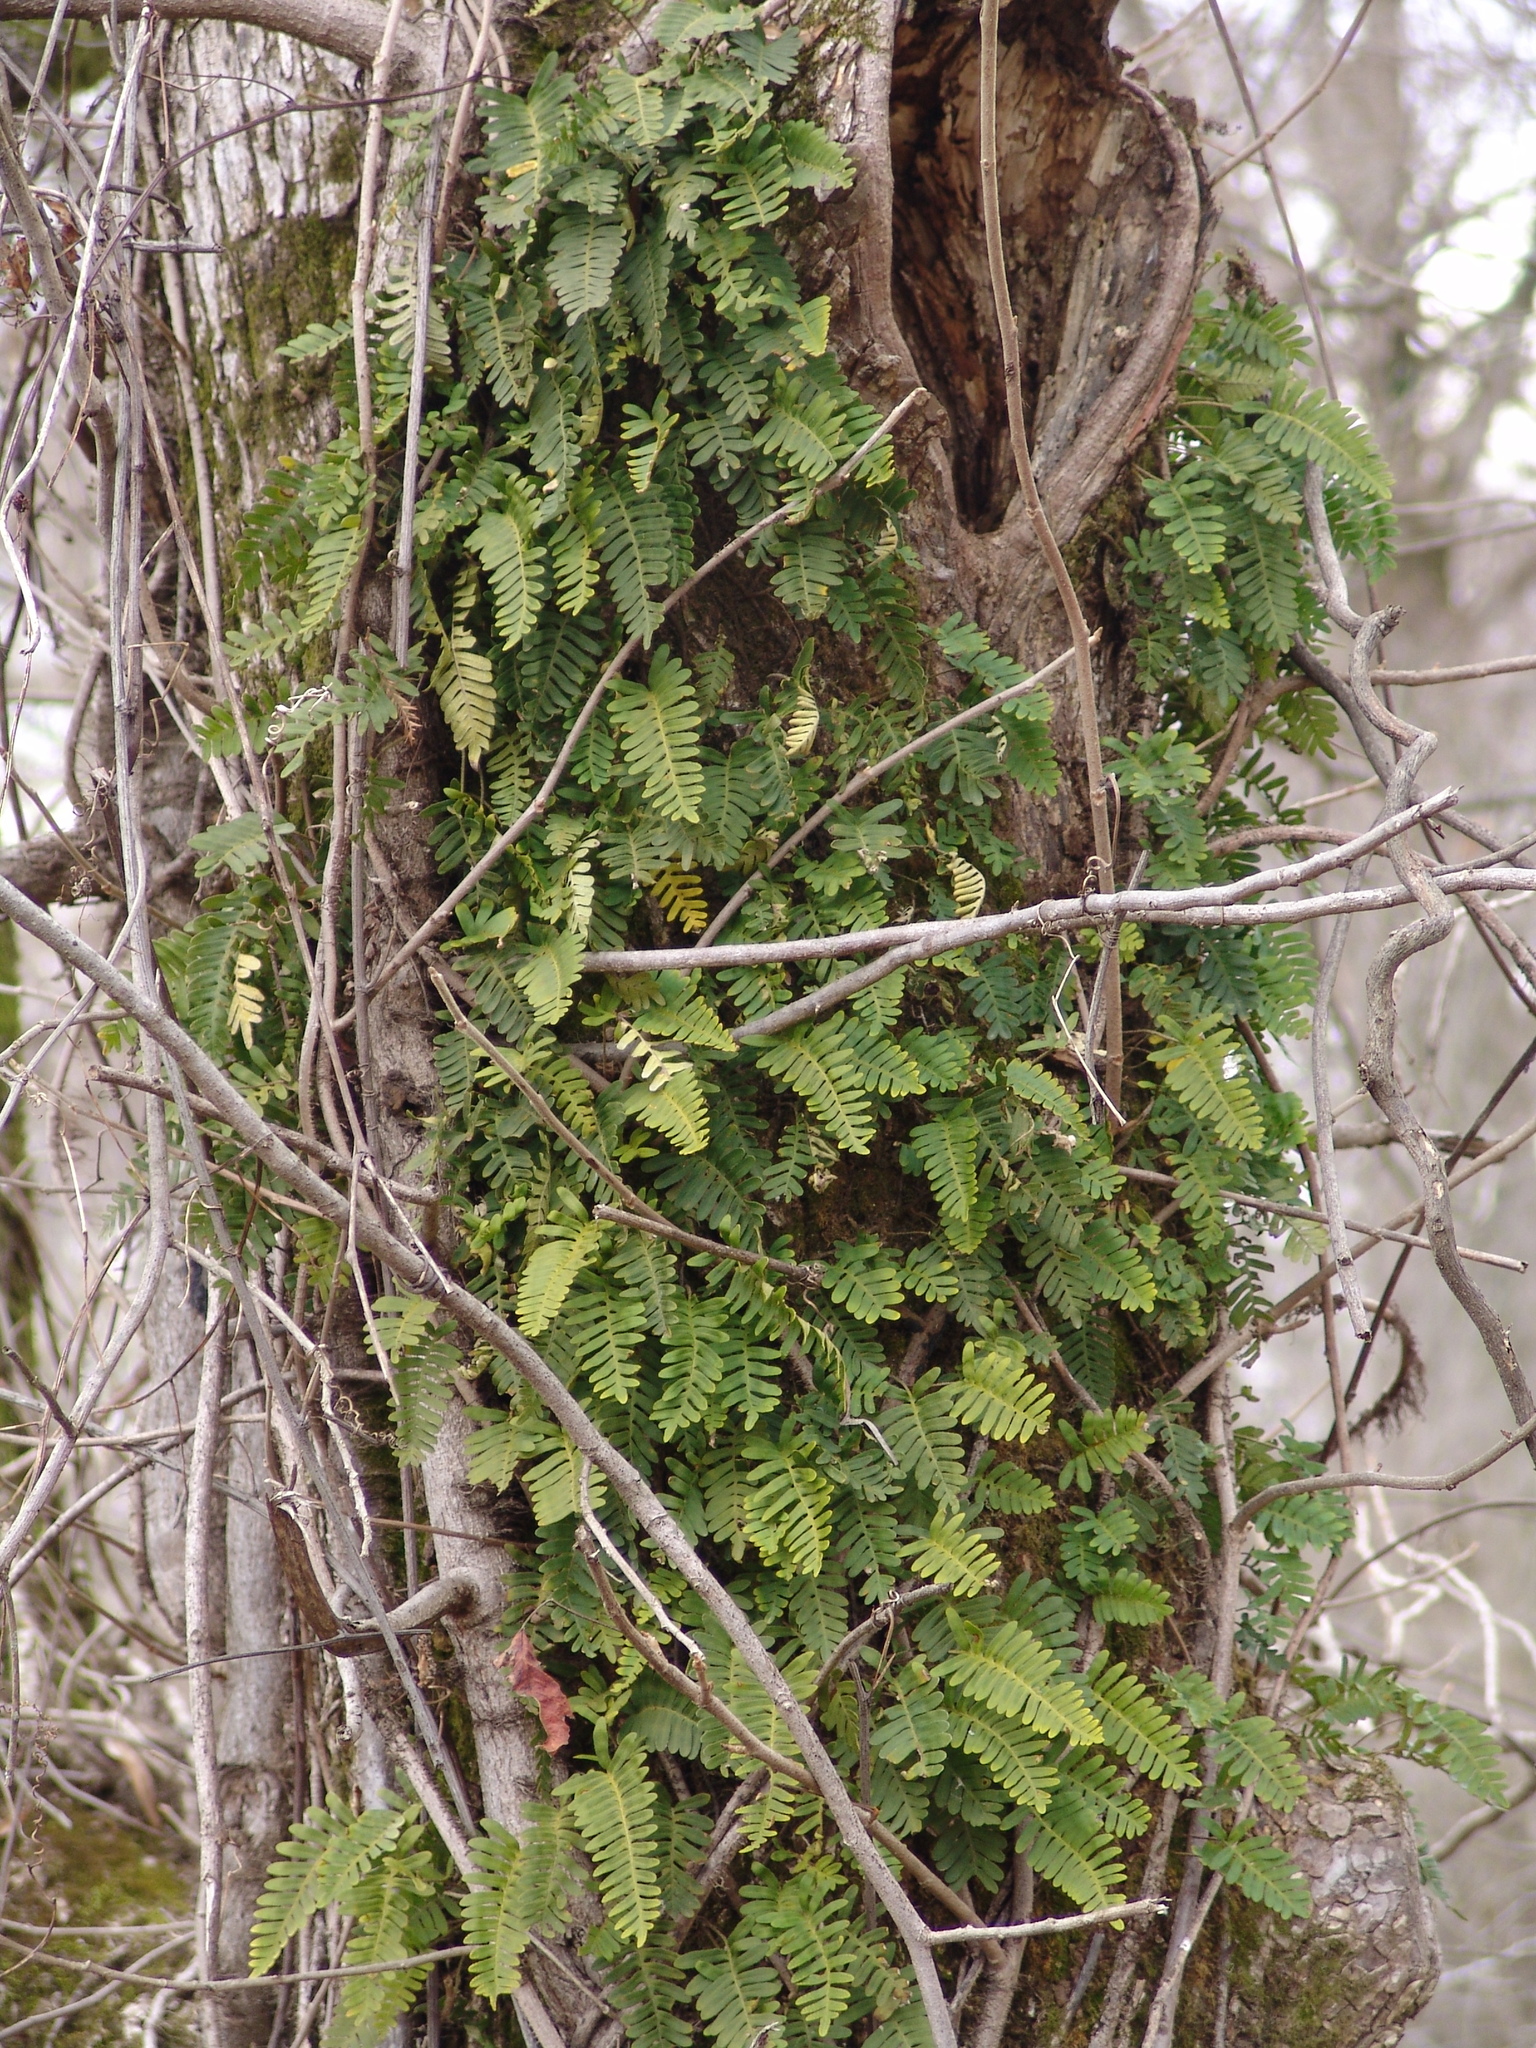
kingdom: Plantae
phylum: Tracheophyta
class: Polypodiopsida
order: Polypodiales
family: Polypodiaceae
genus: Pleopeltis
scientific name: Pleopeltis michauxiana
